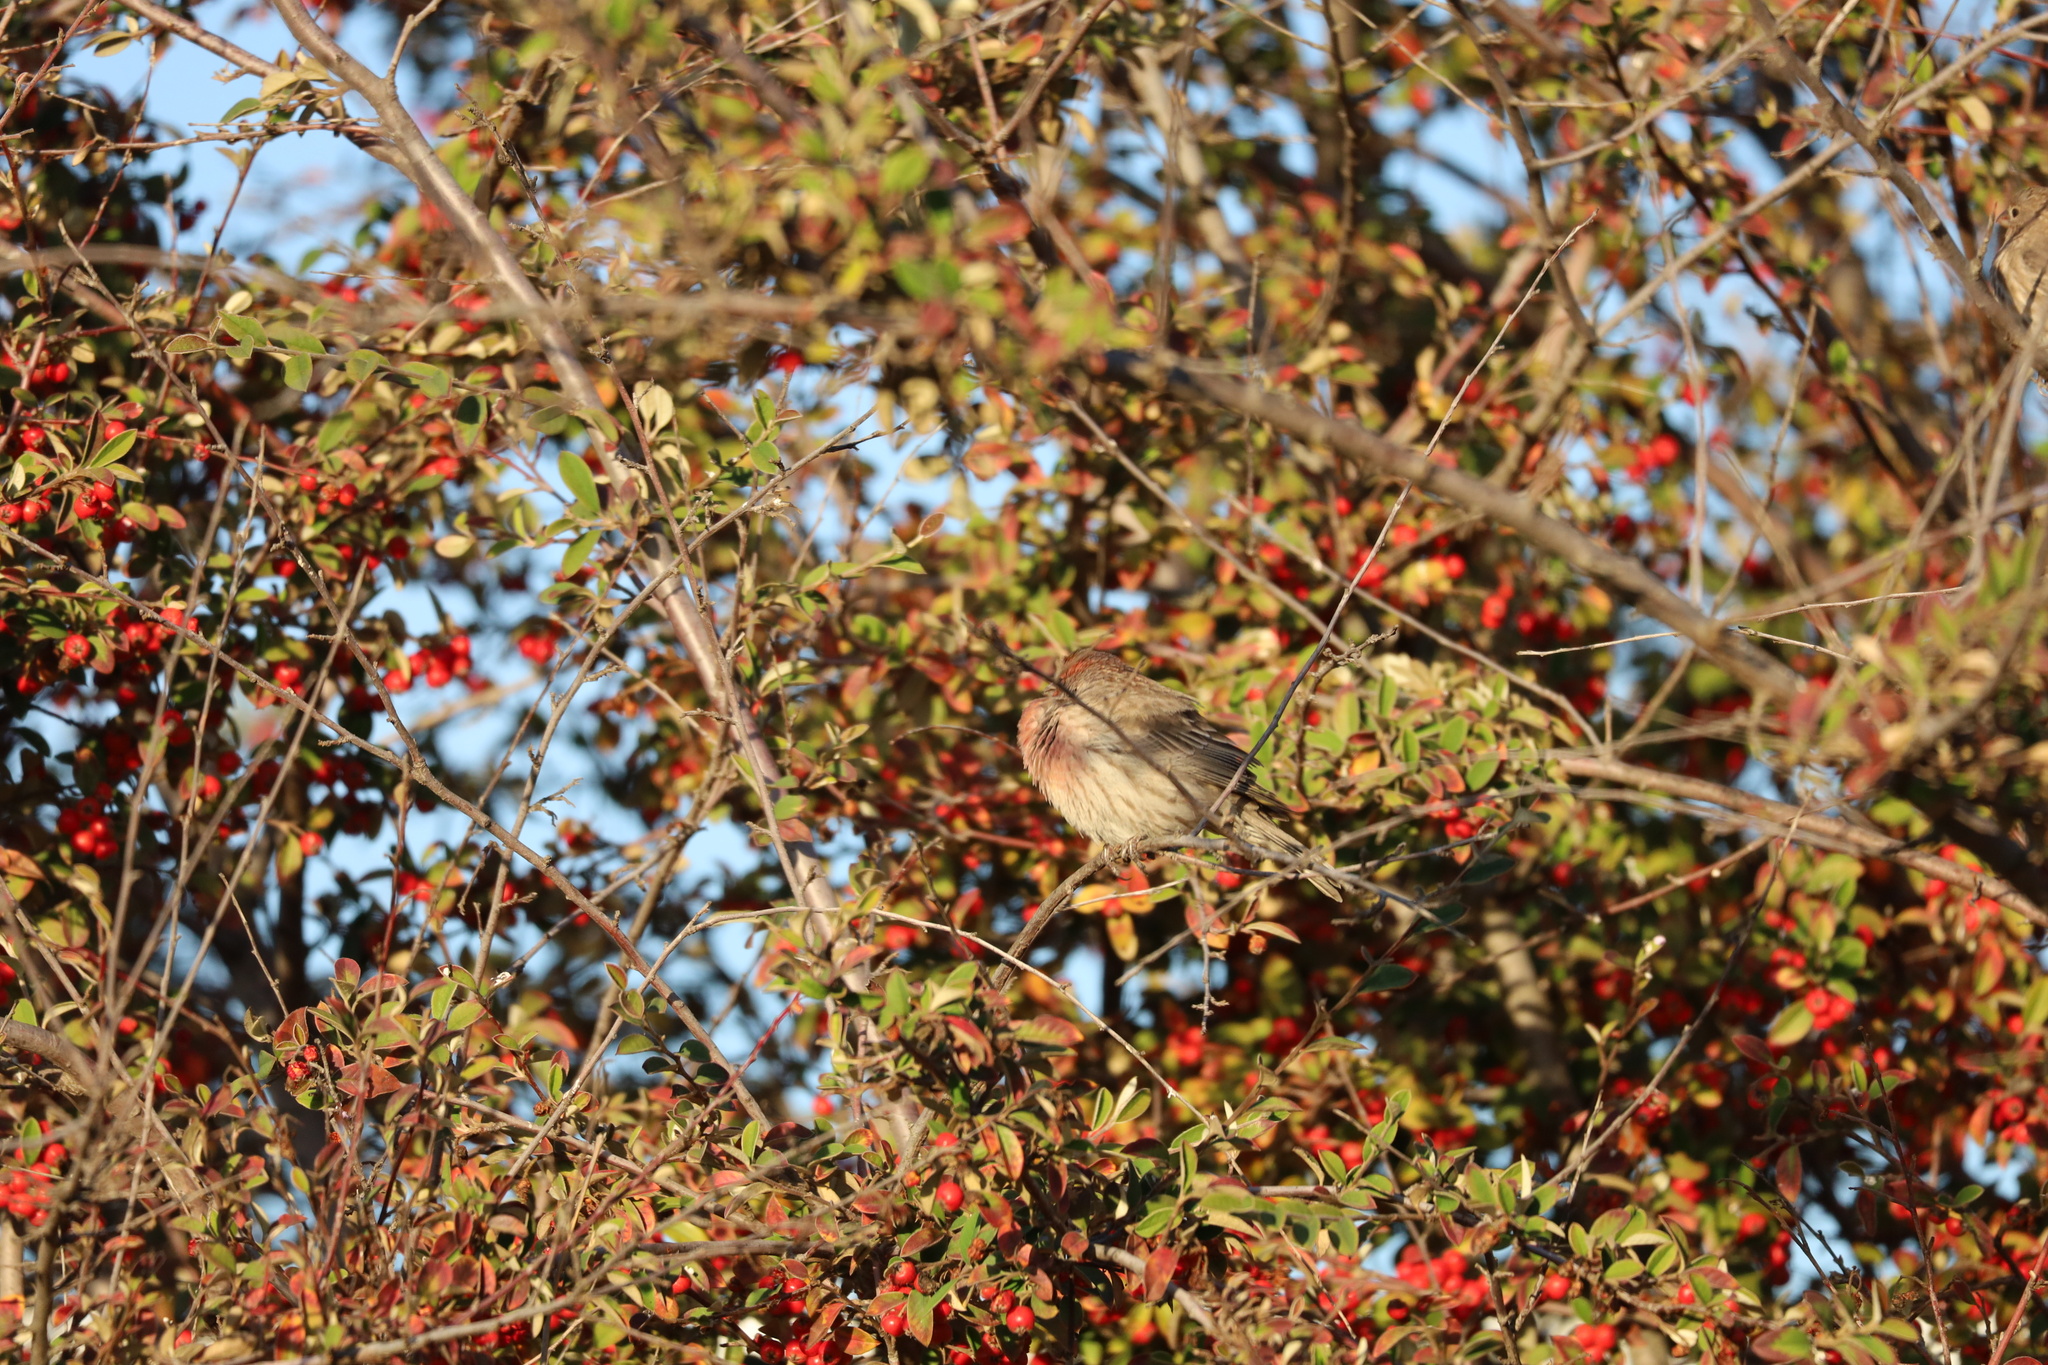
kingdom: Animalia
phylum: Chordata
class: Aves
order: Passeriformes
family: Fringillidae
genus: Haemorhous
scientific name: Haemorhous mexicanus
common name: House finch
